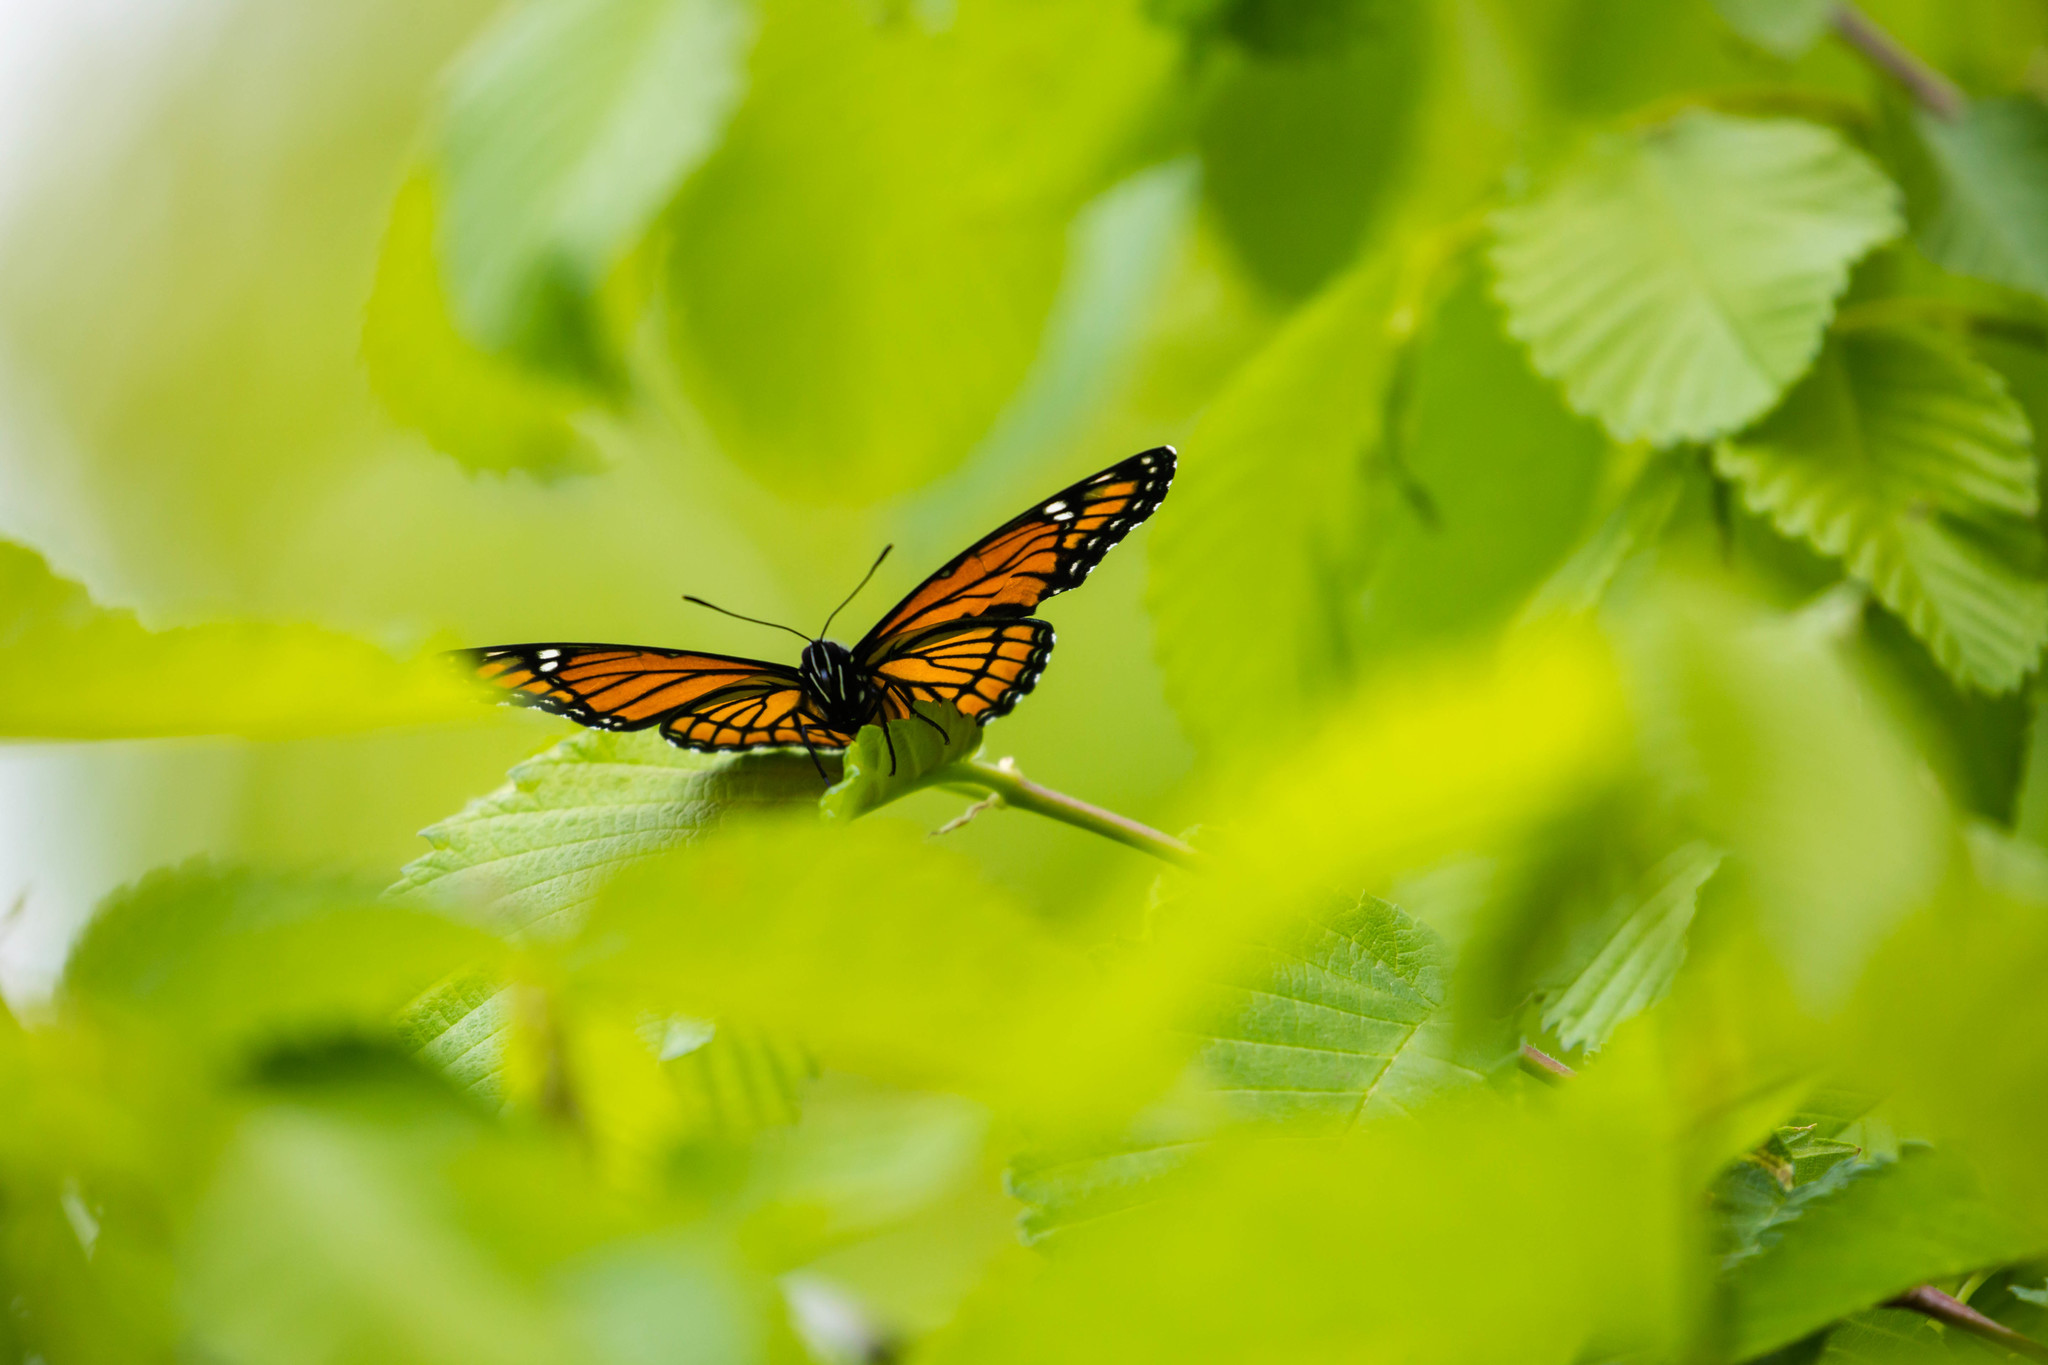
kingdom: Animalia
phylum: Arthropoda
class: Insecta
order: Lepidoptera
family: Nymphalidae
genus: Limenitis
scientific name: Limenitis archippus
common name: Viceroy
